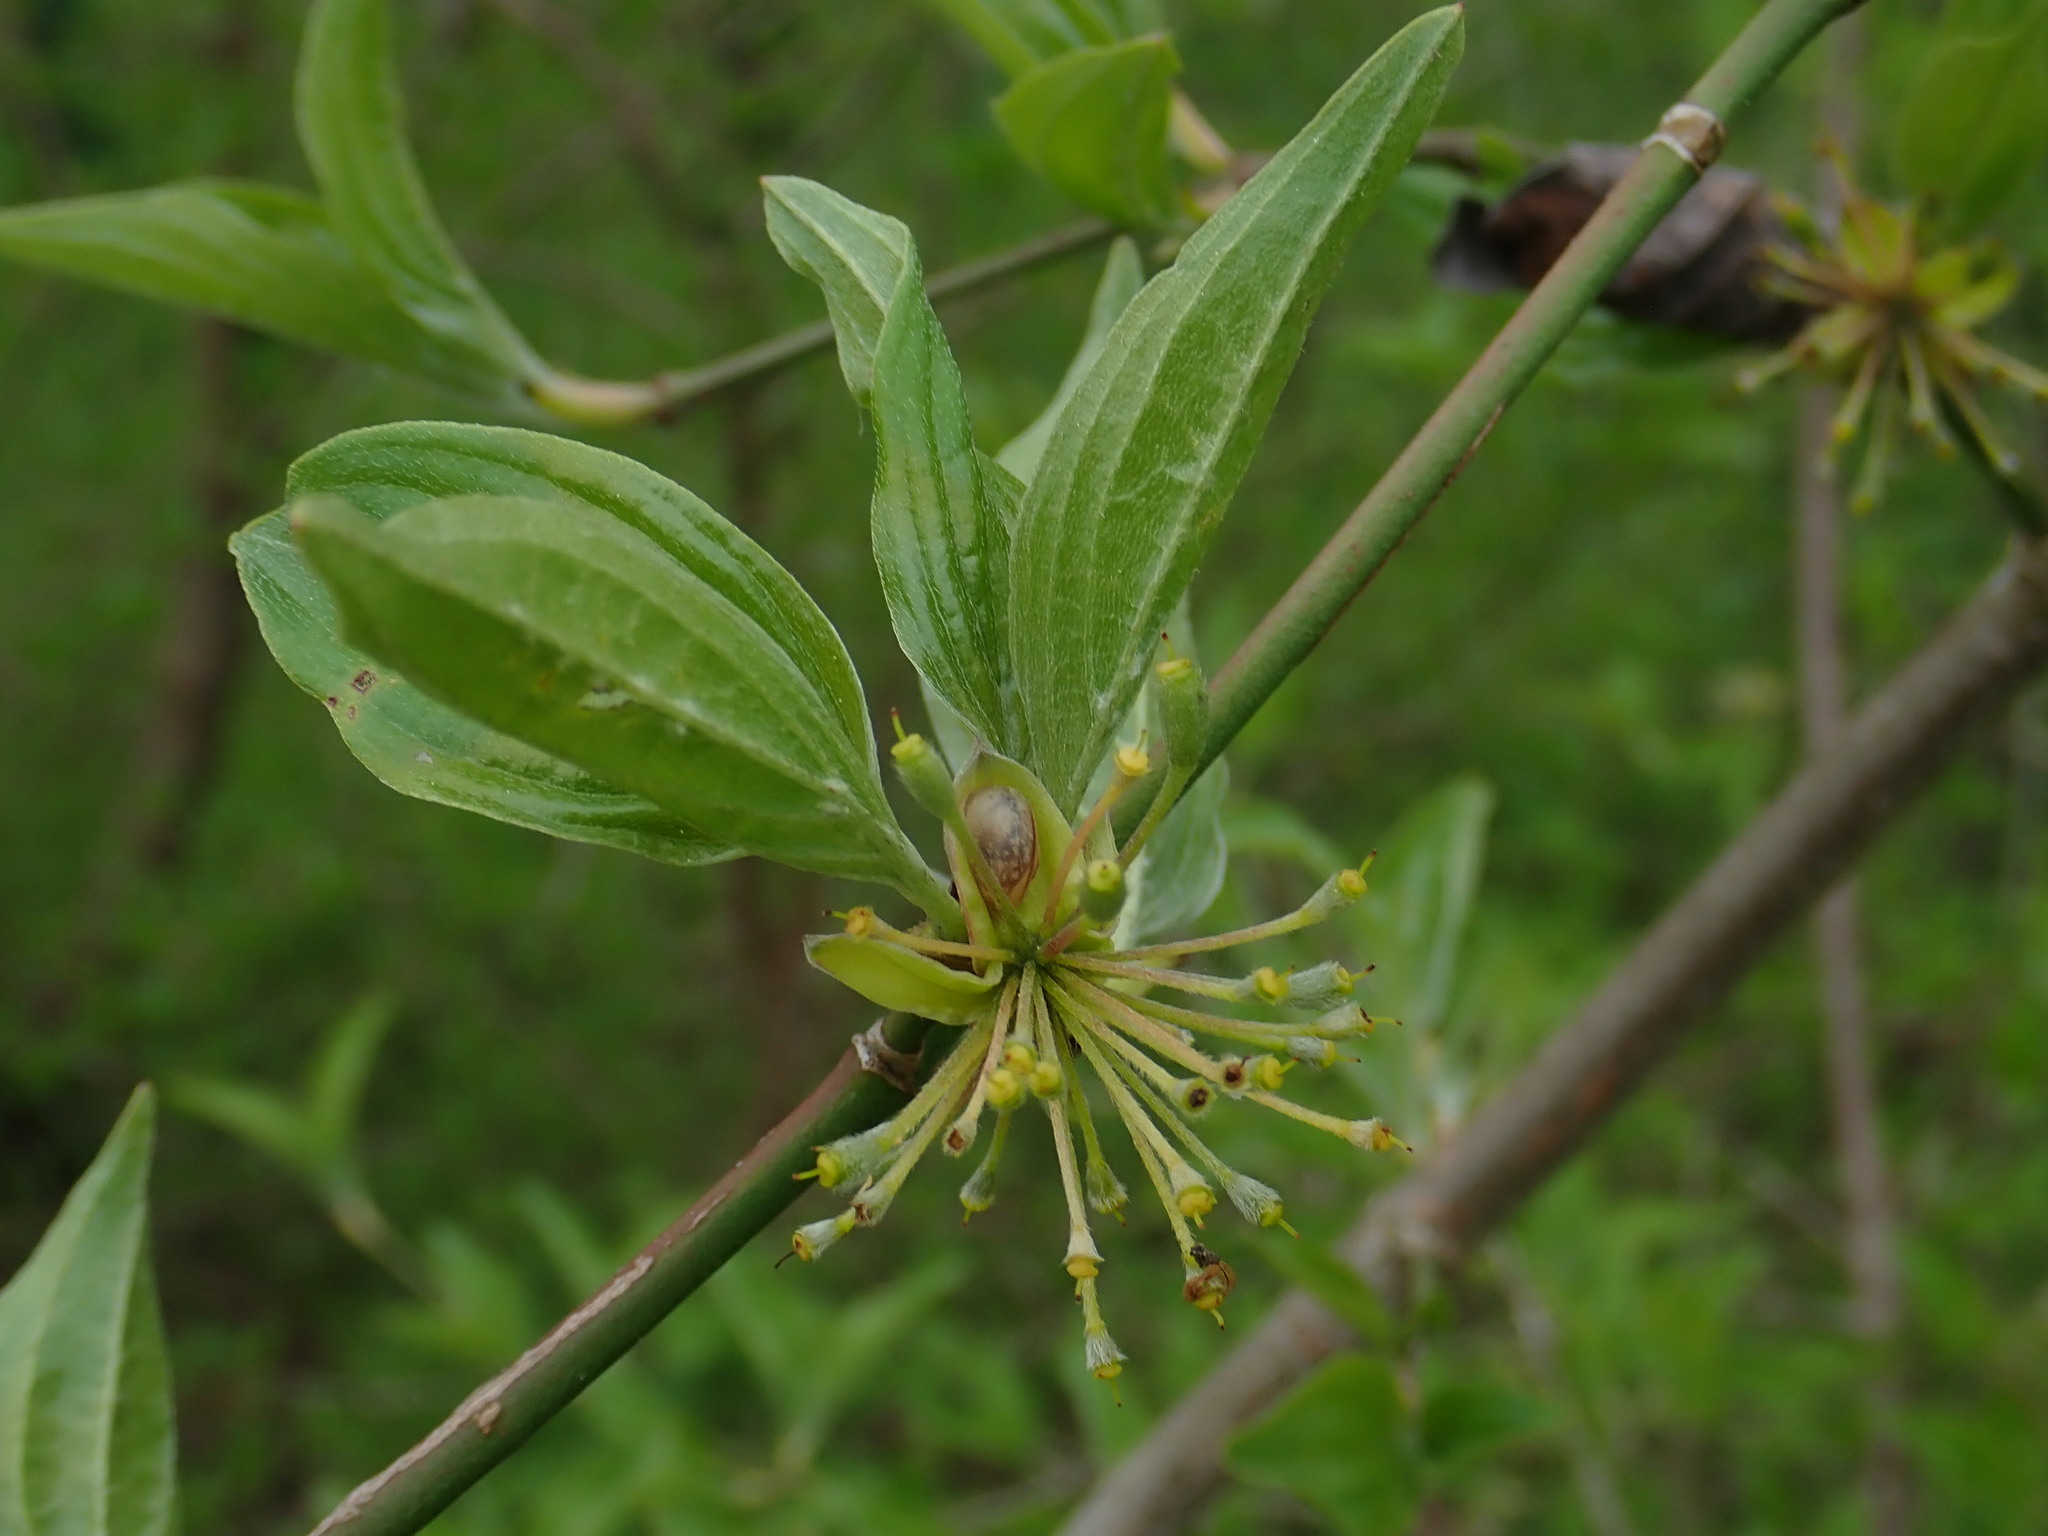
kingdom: Plantae
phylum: Tracheophyta
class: Magnoliopsida
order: Cornales
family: Cornaceae
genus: Cornus
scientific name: Cornus mas
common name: Cornelian-cherry
